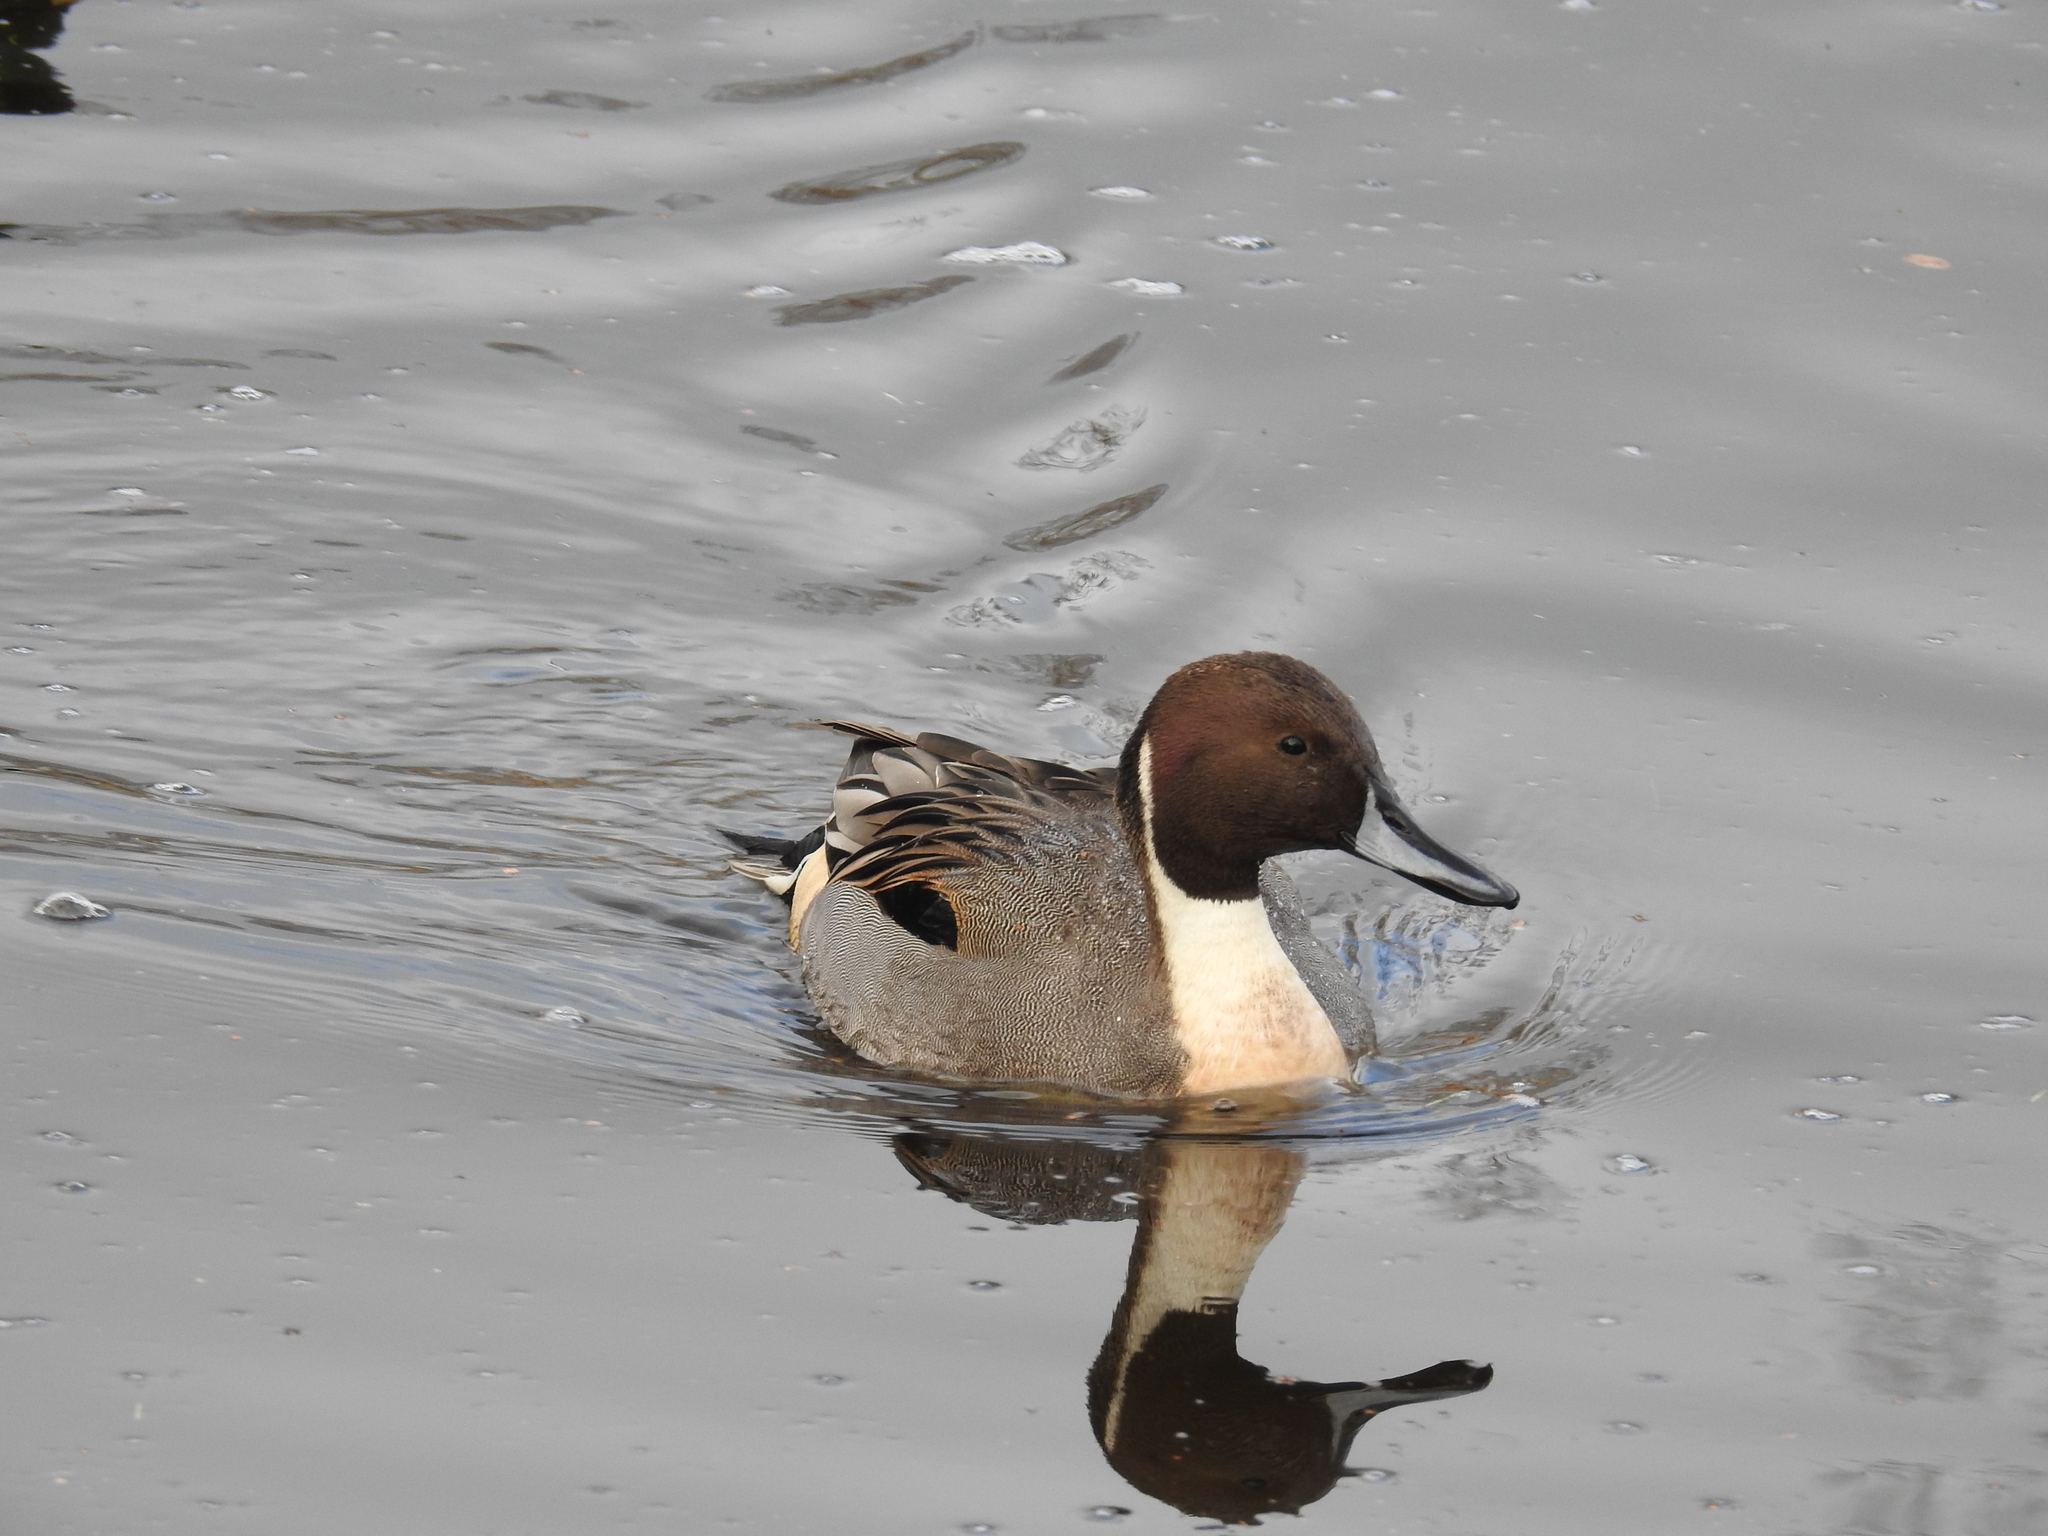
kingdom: Animalia
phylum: Chordata
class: Aves
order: Anseriformes
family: Anatidae
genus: Anas
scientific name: Anas acuta
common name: Northern pintail
